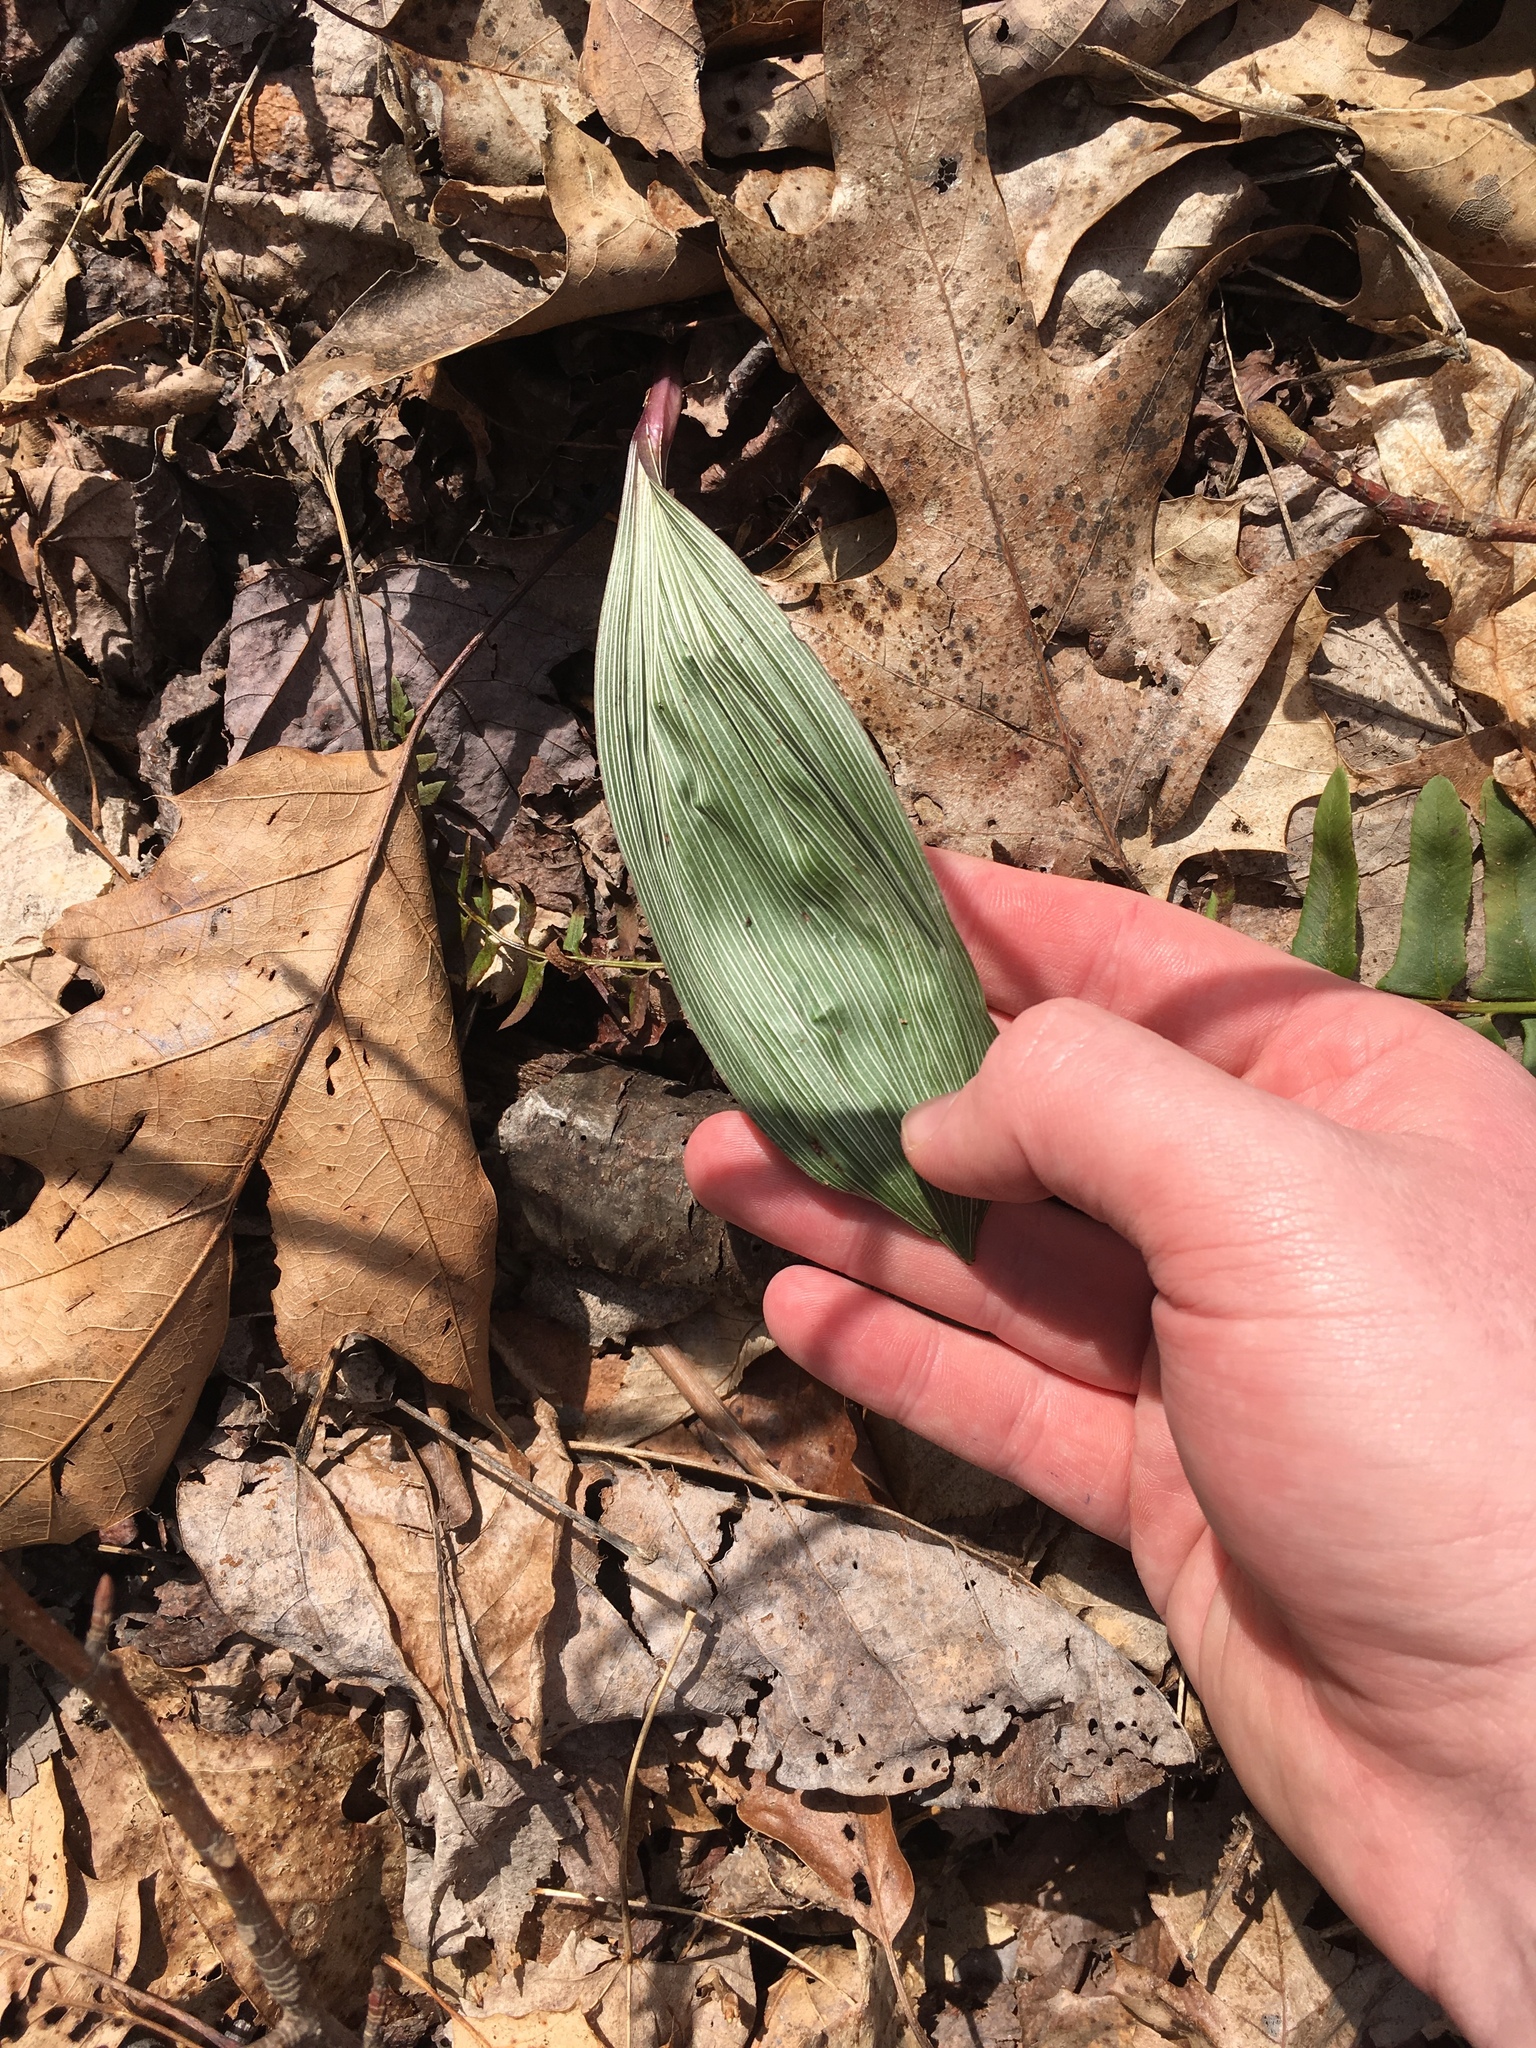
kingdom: Plantae
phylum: Tracheophyta
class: Liliopsida
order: Asparagales
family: Orchidaceae
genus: Aplectrum
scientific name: Aplectrum hyemale
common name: Adam-and-eve
